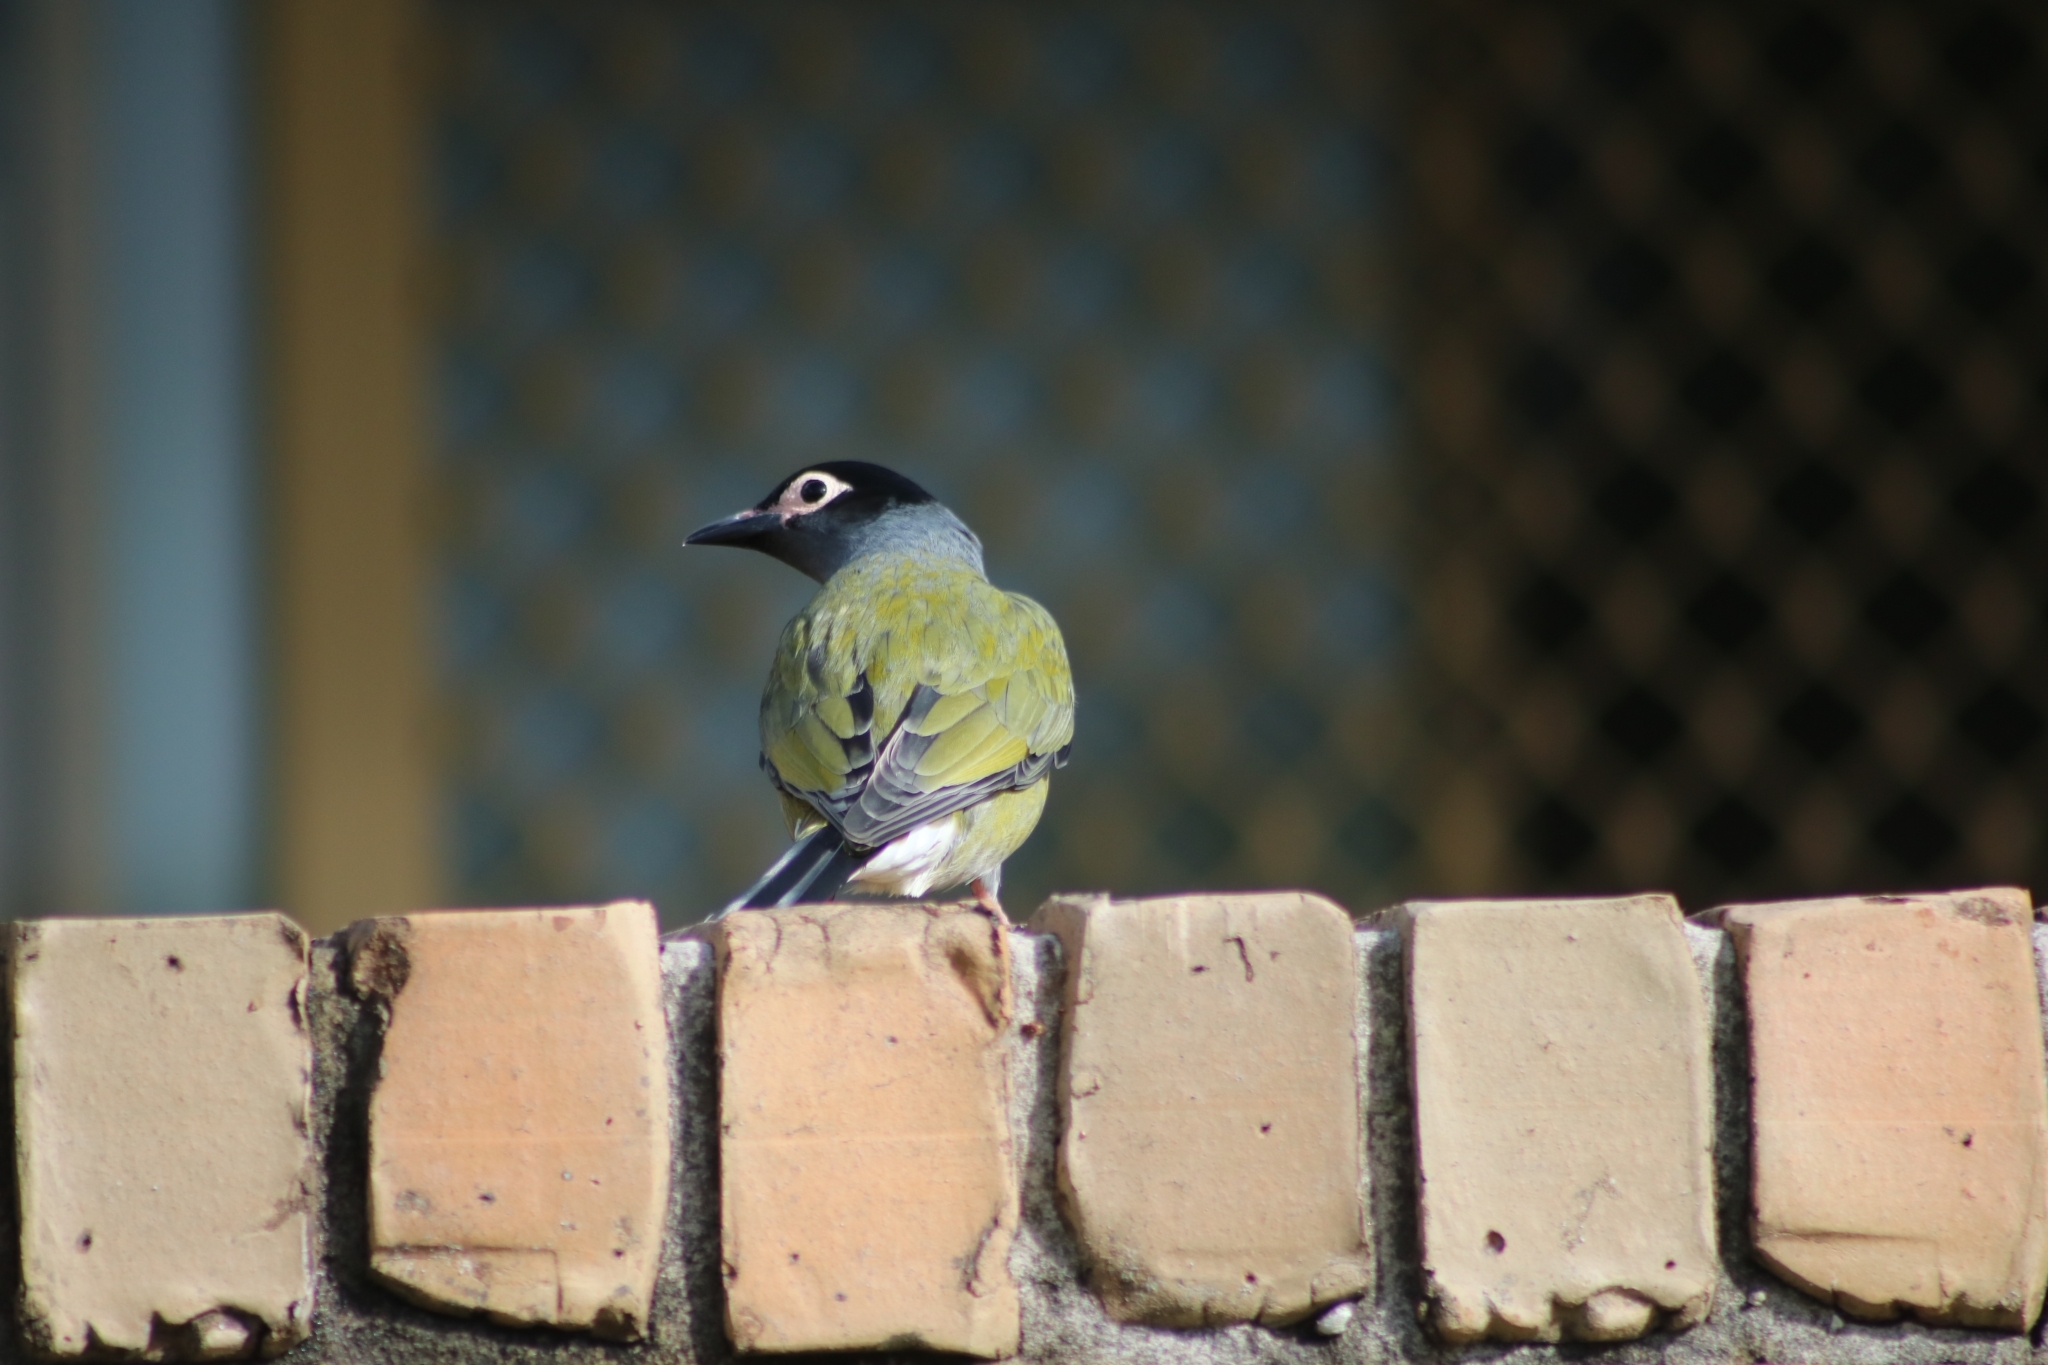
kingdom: Animalia
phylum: Chordata
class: Aves
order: Passeriformes
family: Oriolidae
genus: Sphecotheres
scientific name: Sphecotheres vieilloti
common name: Australasian figbird
